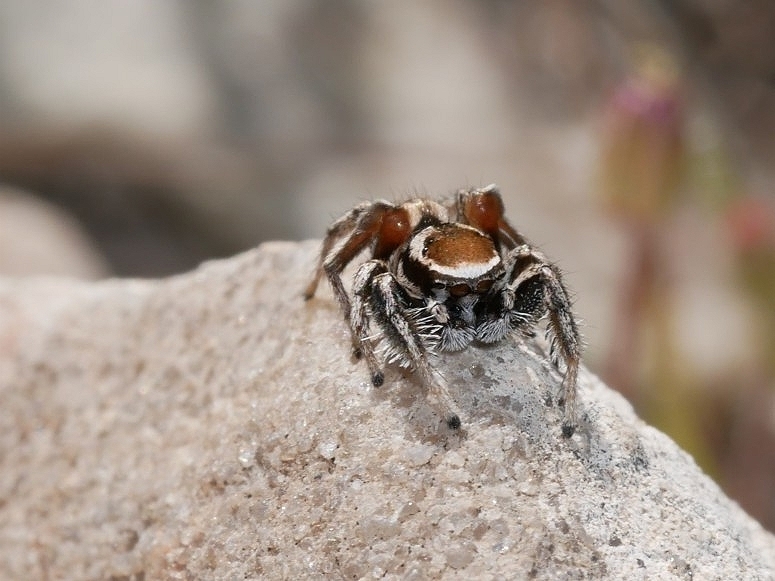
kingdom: Animalia
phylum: Arthropoda
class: Arachnida
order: Araneae
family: Salticidae
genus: Habronattus
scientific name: Habronattus clypeatus
